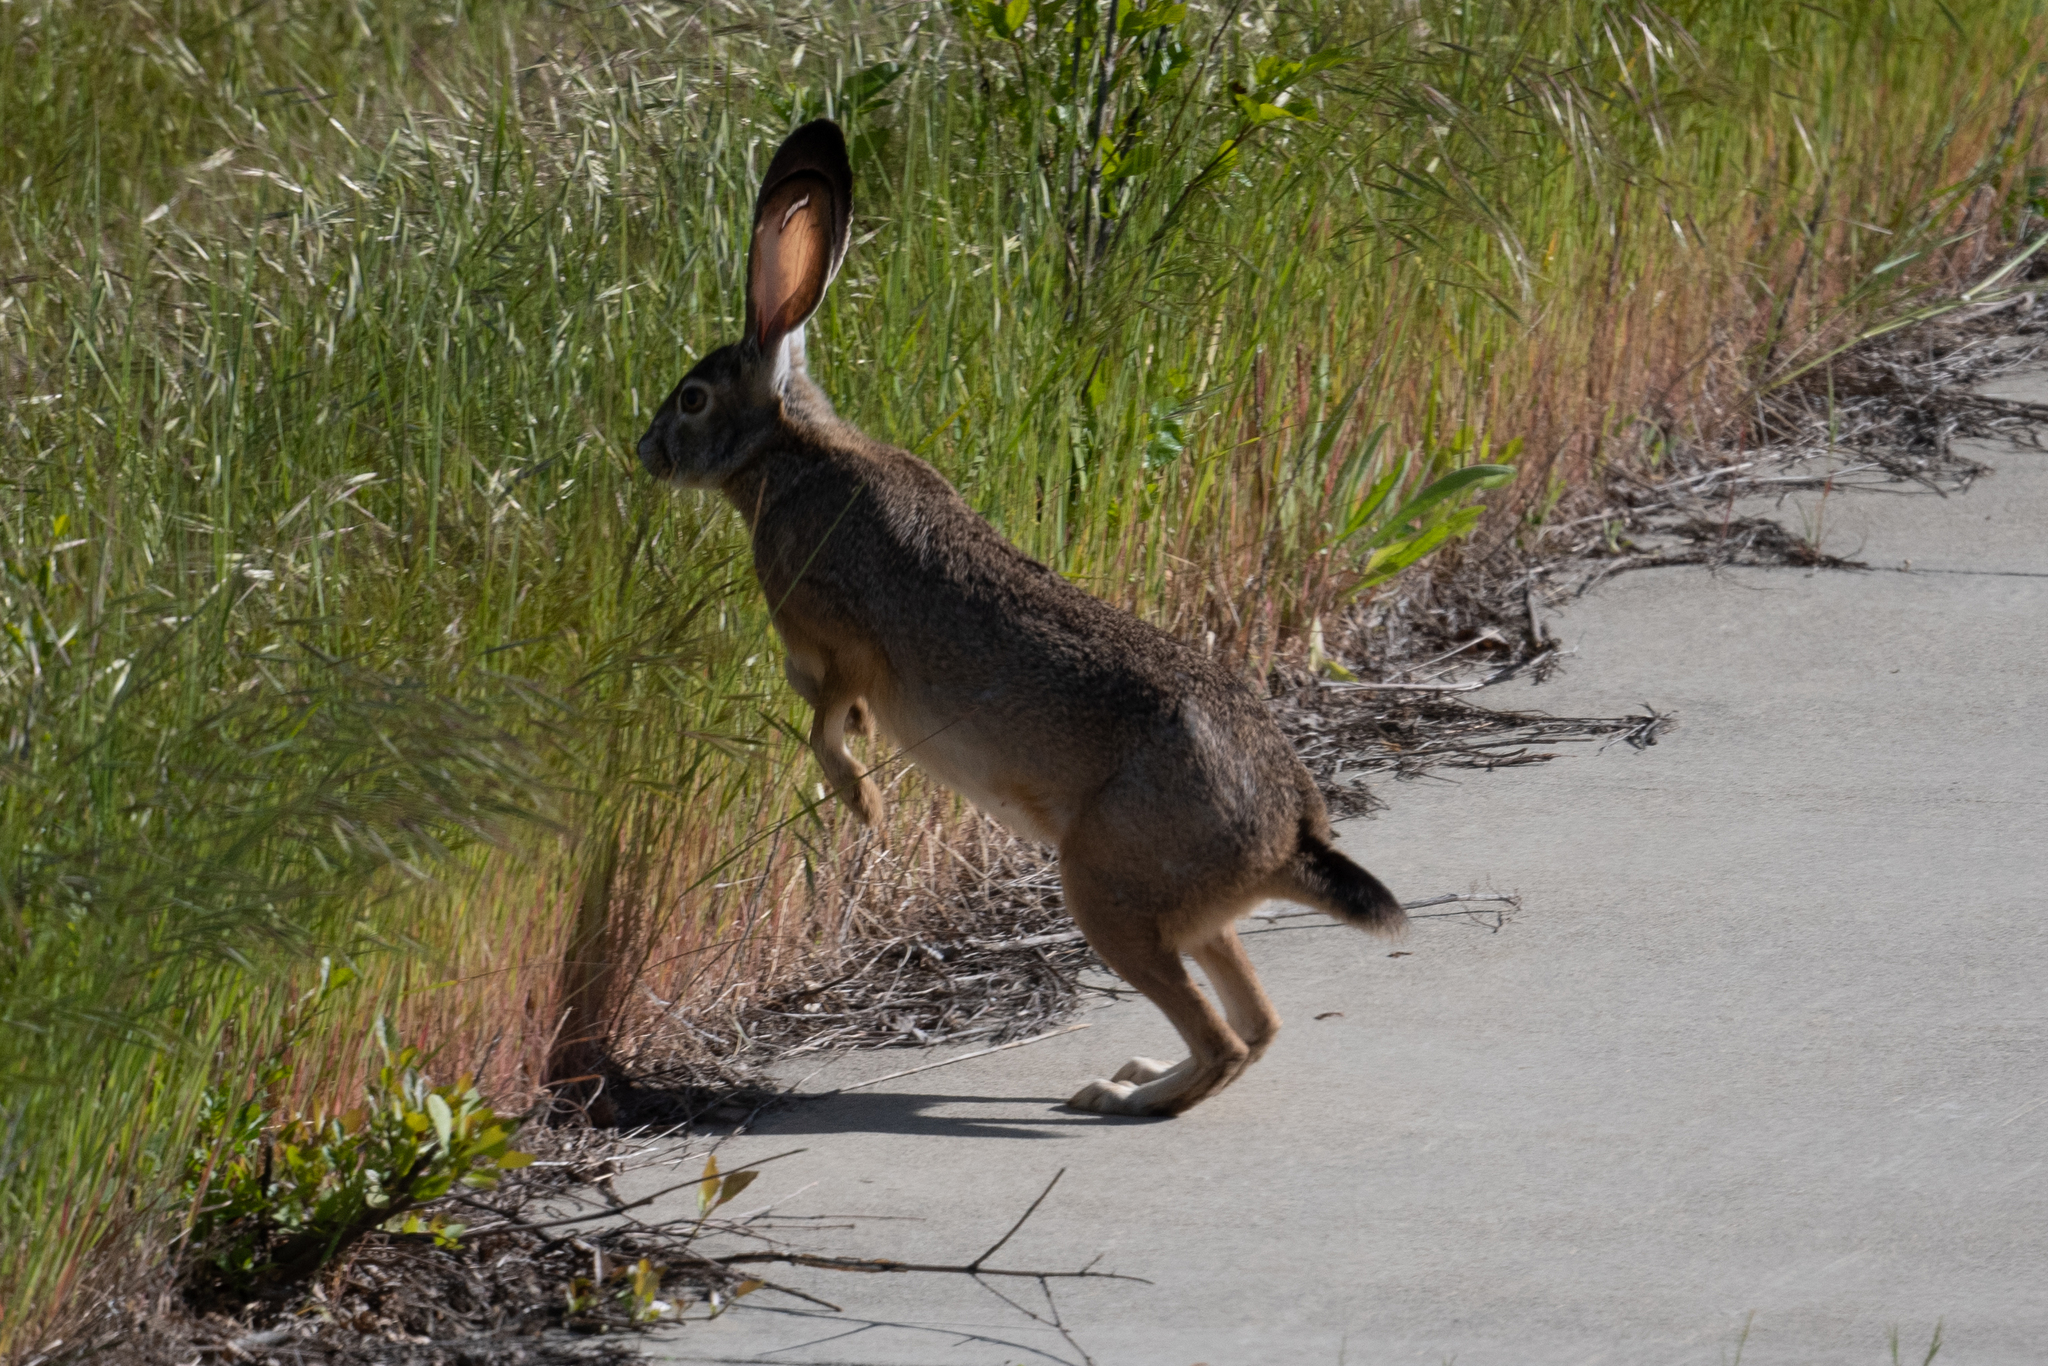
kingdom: Animalia
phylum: Chordata
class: Mammalia
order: Lagomorpha
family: Leporidae
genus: Lepus
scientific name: Lepus californicus
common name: Black-tailed jackrabbit
